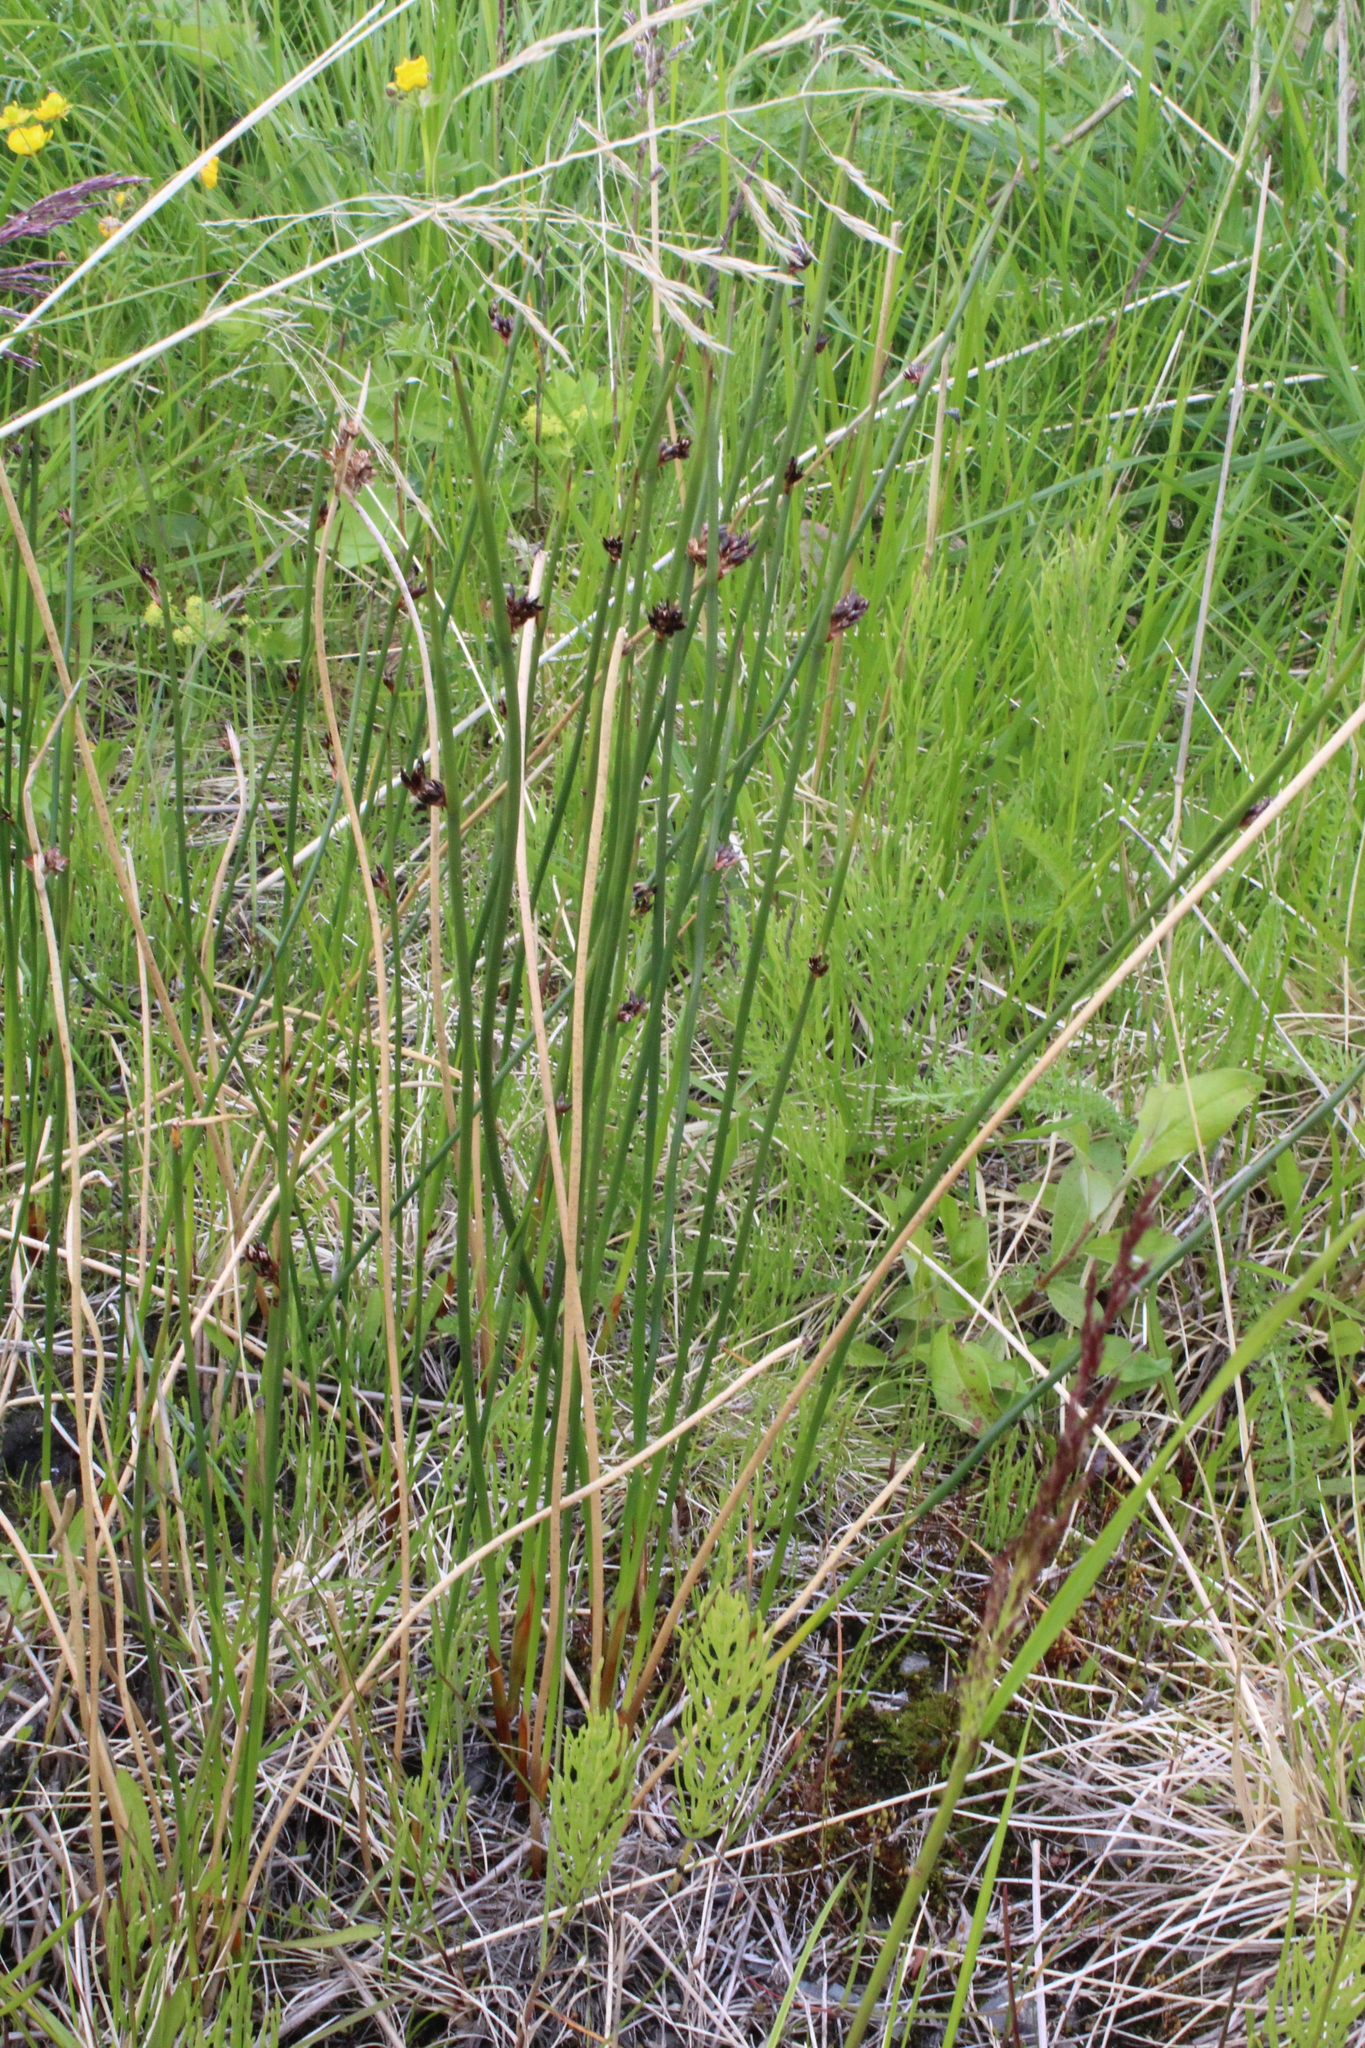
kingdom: Plantae
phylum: Tracheophyta
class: Liliopsida
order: Poales
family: Juncaceae
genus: Juncus
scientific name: Juncus arcticus
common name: Arctic rush
